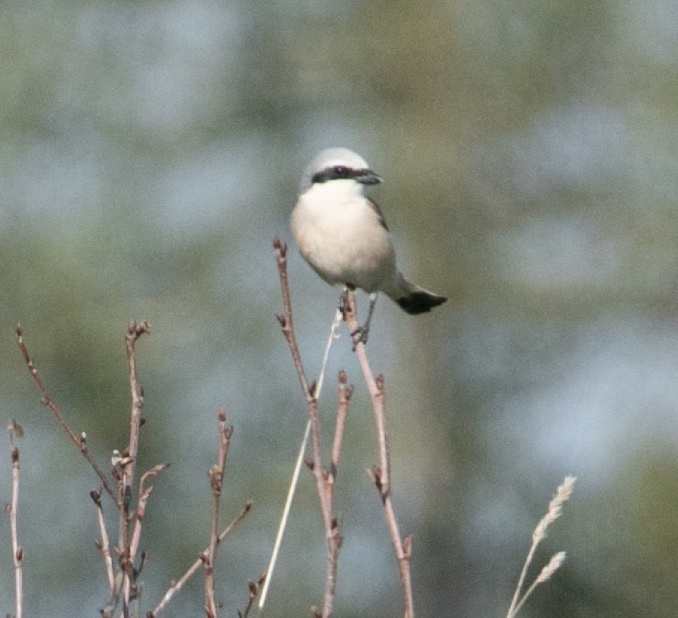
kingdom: Animalia
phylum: Chordata
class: Aves
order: Passeriformes
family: Laniidae
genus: Lanius
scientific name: Lanius collurio
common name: Red-backed shrike
